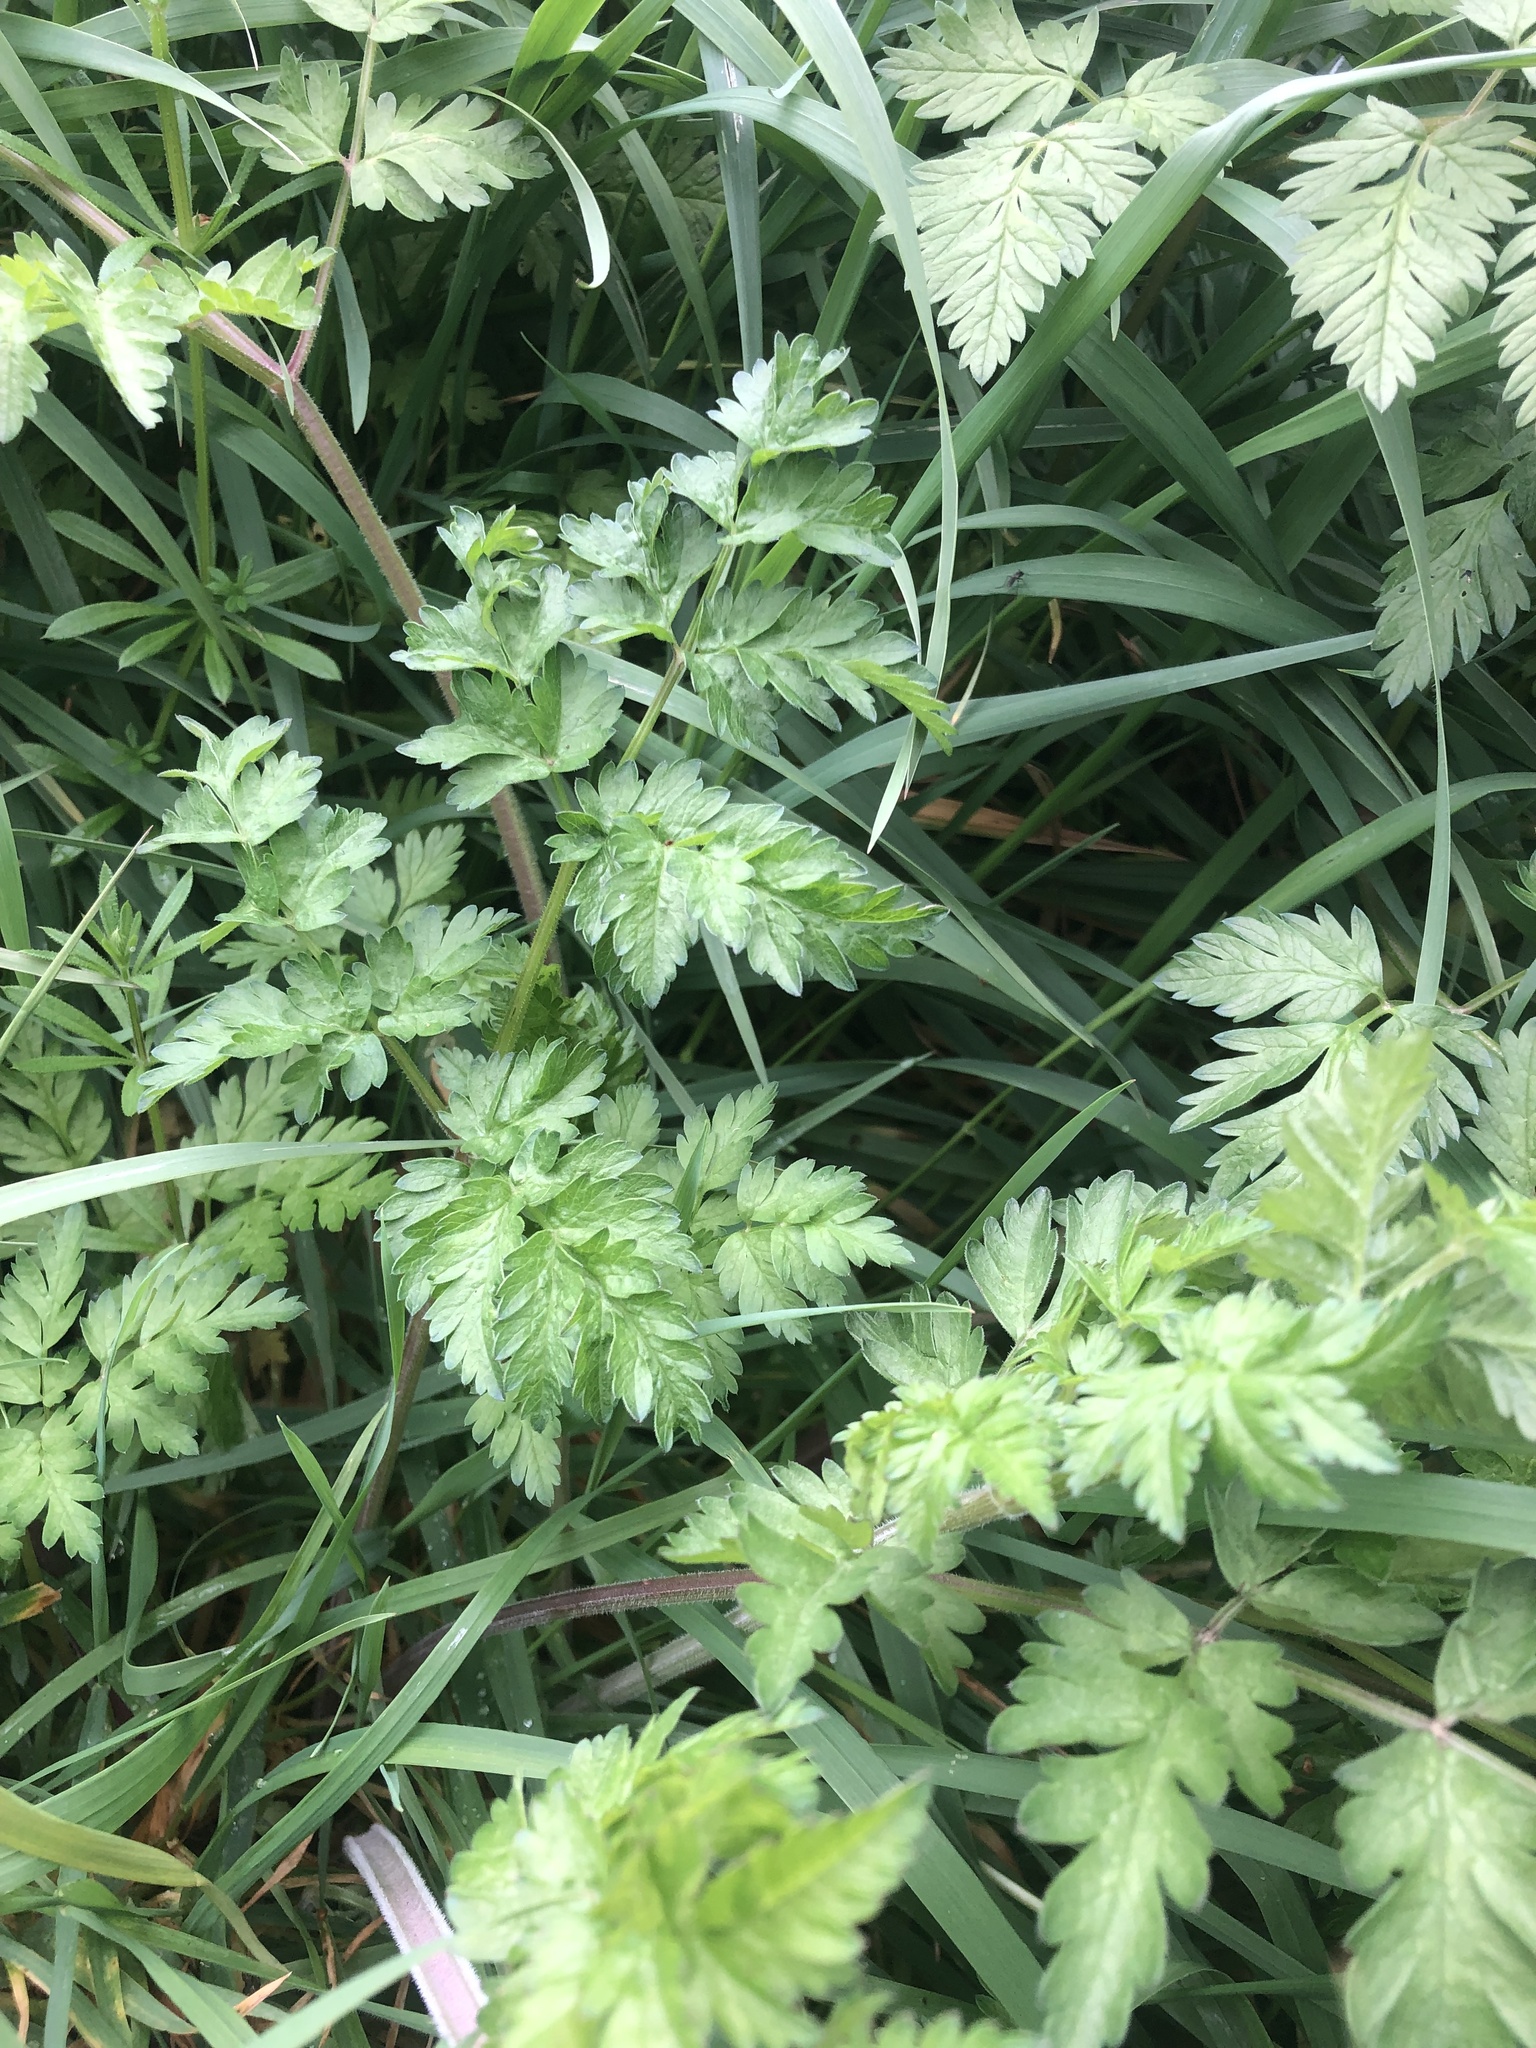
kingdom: Plantae
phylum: Tracheophyta
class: Magnoliopsida
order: Apiales
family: Apiaceae
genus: Anthriscus
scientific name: Anthriscus sylvestris
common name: Cow parsley
